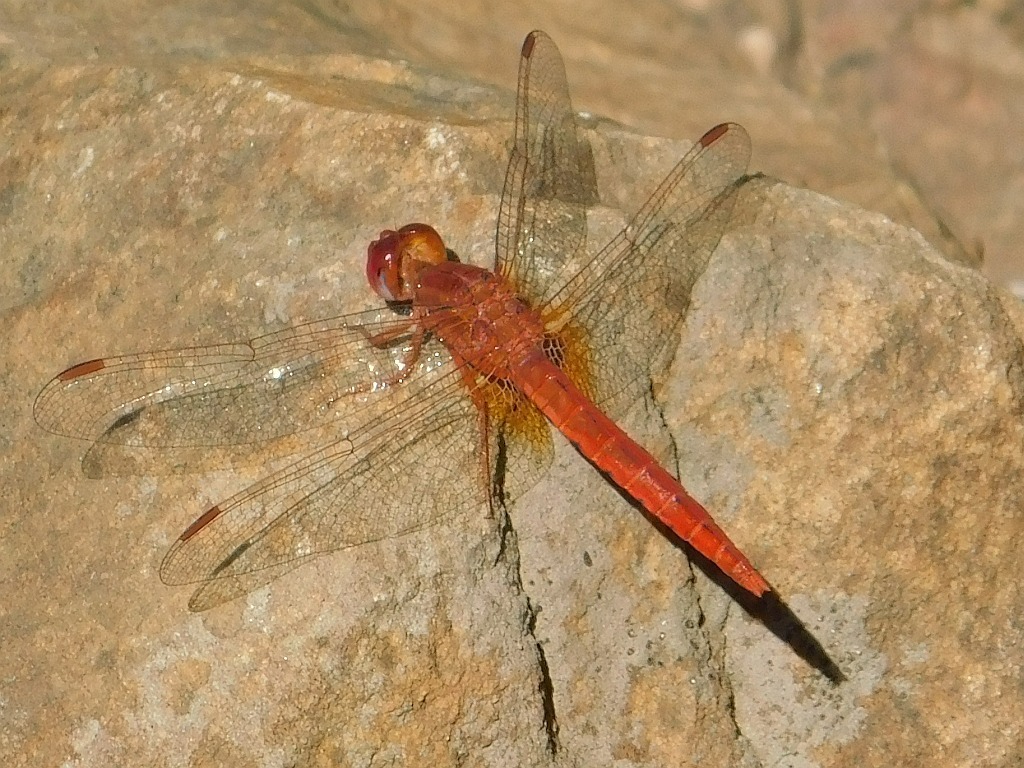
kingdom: Animalia
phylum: Arthropoda
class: Insecta
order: Odonata
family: Libellulidae
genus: Crocothemis
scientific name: Crocothemis sanguinolenta
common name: Little scarlet
